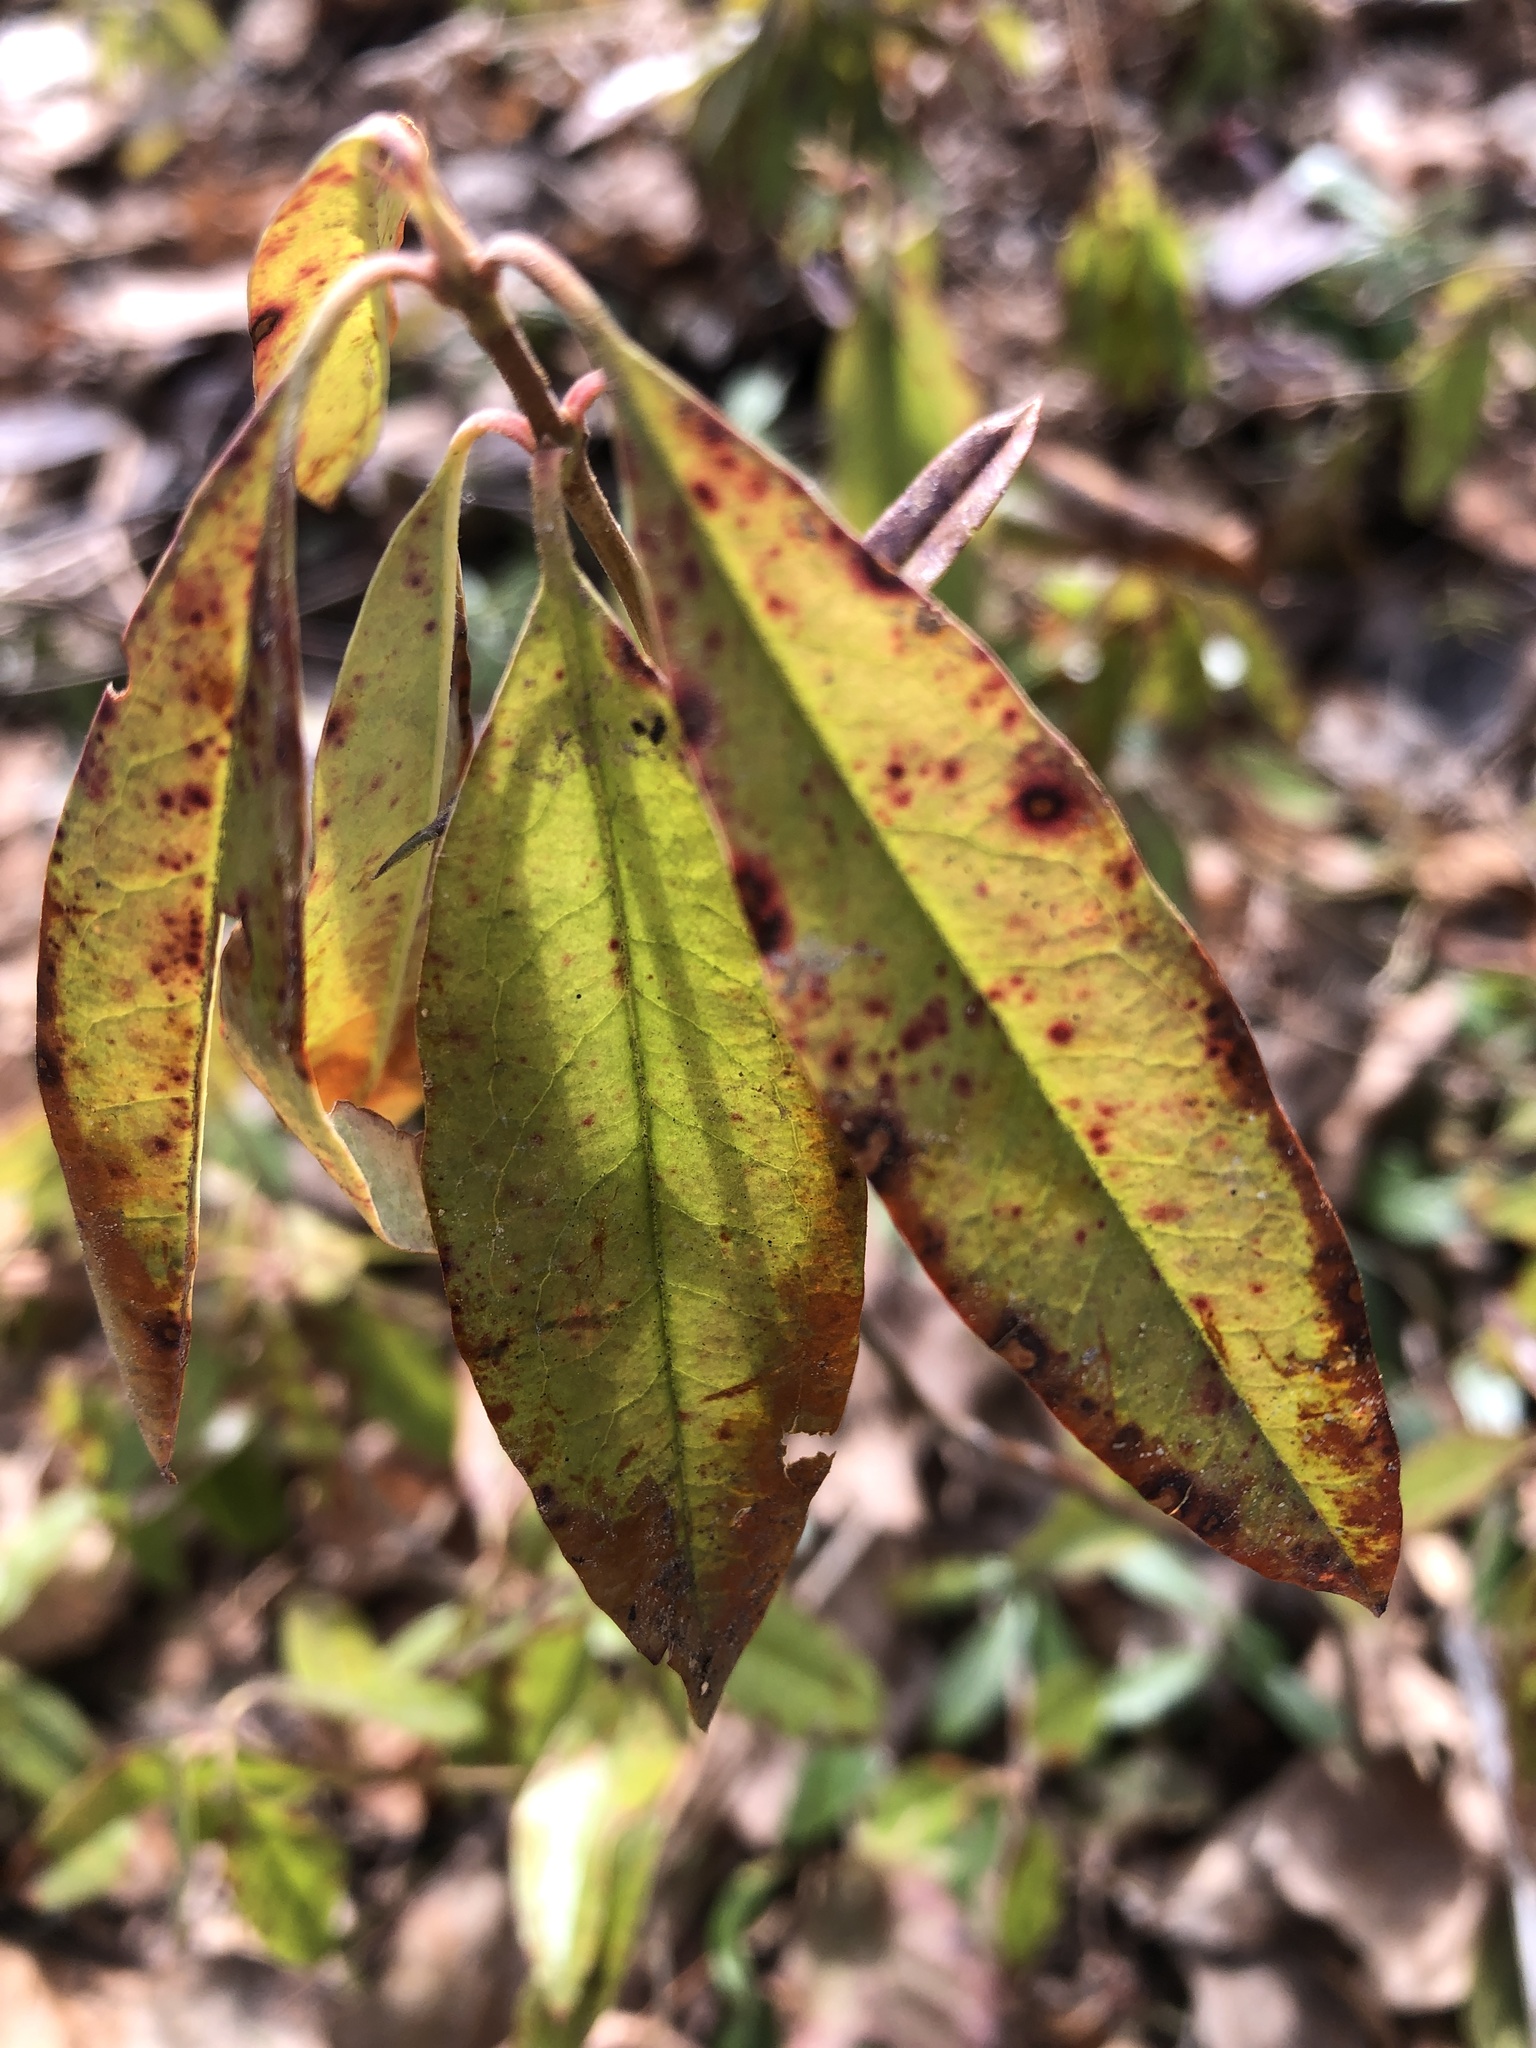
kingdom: Plantae
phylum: Tracheophyta
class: Magnoliopsida
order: Ericales
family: Ericaceae
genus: Kalmia
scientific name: Kalmia angustifolia
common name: Sheep-laurel
